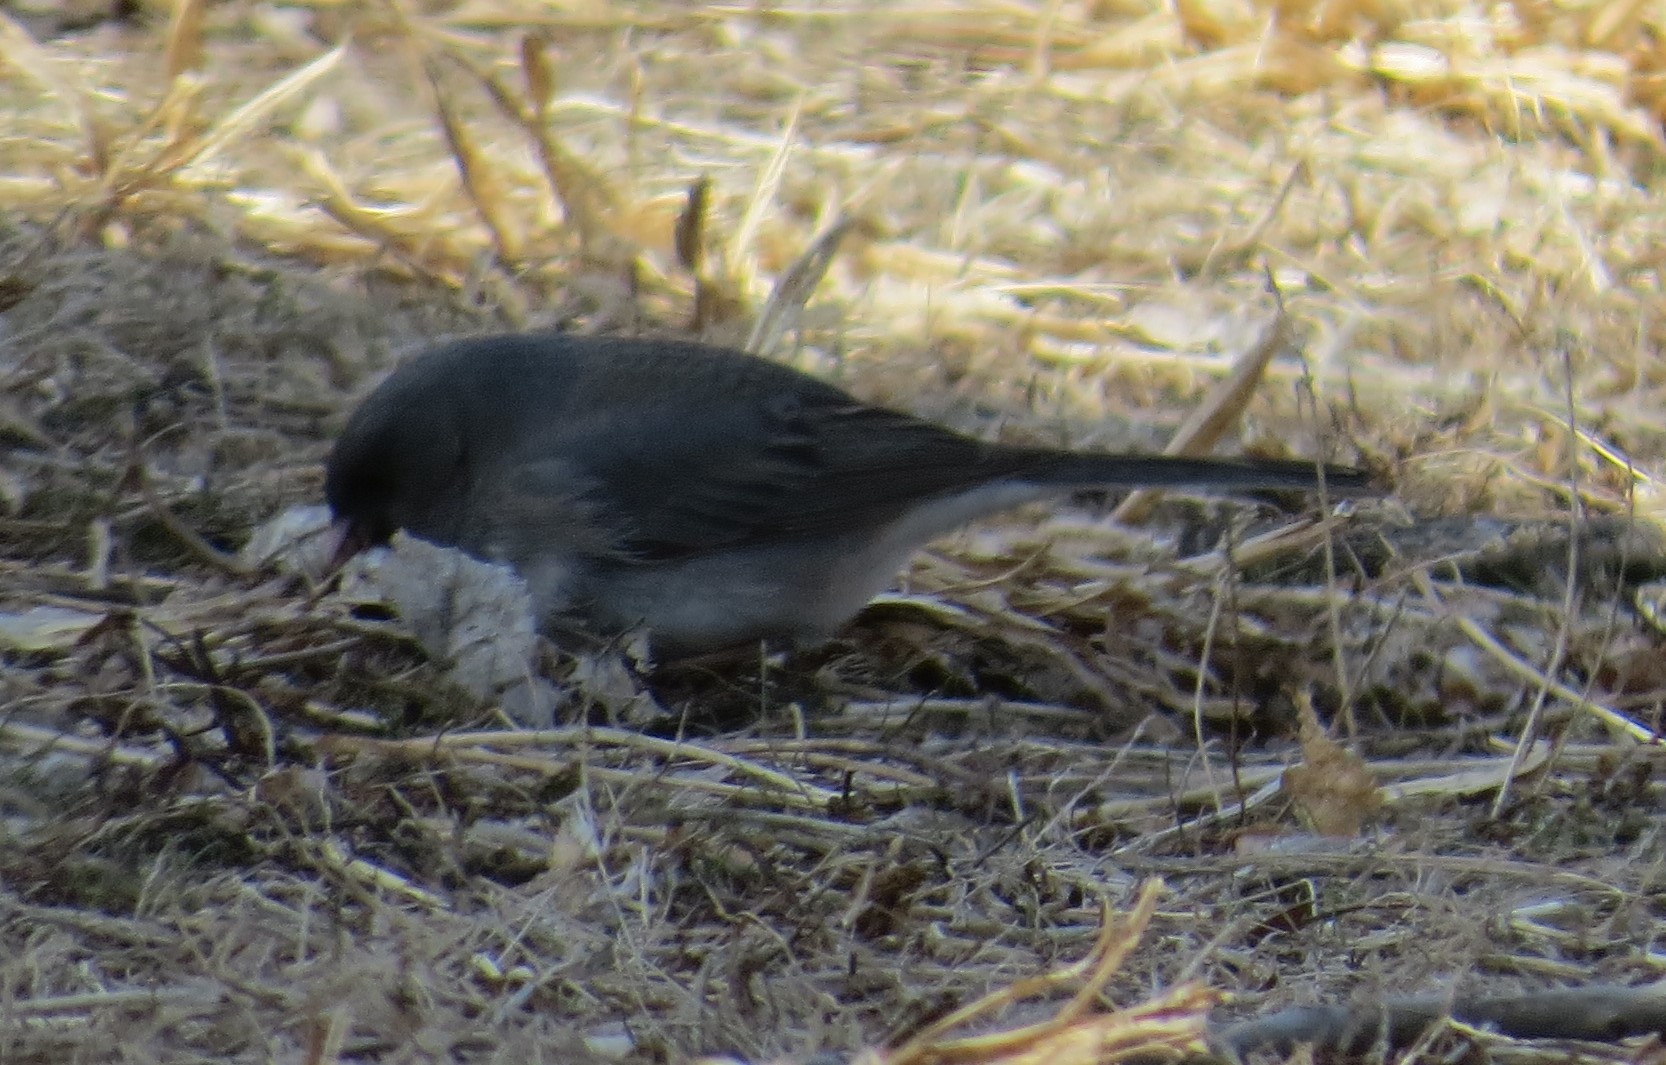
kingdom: Animalia
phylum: Chordata
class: Aves
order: Passeriformes
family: Passerellidae
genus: Junco
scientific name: Junco hyemalis
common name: Dark-eyed junco
